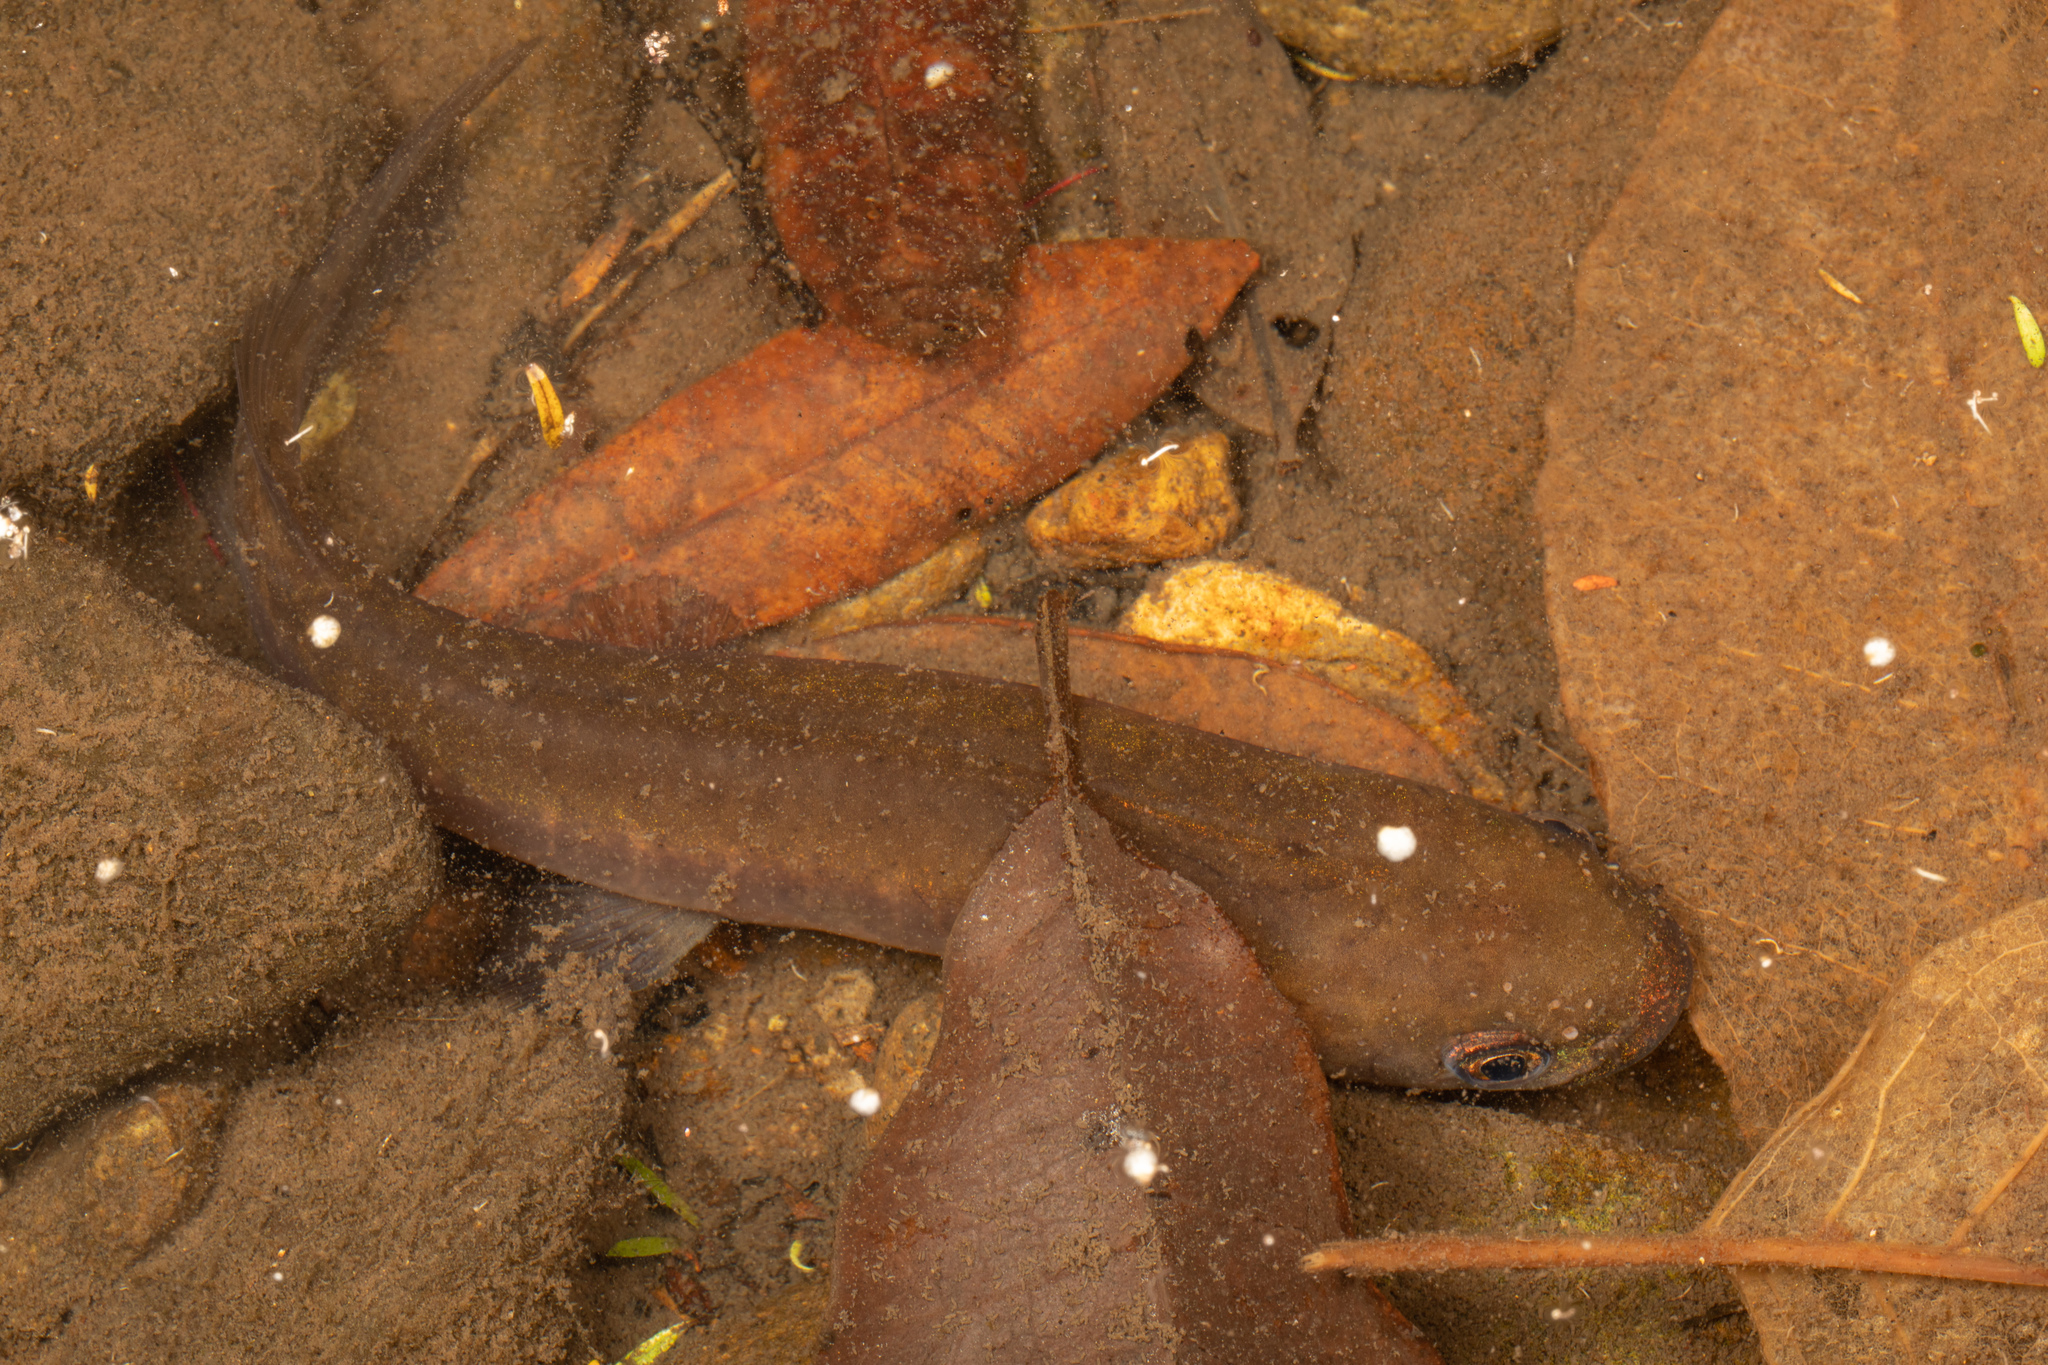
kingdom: Animalia
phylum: Chordata
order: Osmeriformes
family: Galaxiidae
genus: Galaxias
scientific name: Galaxias fasciatus
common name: Banded kokopu
